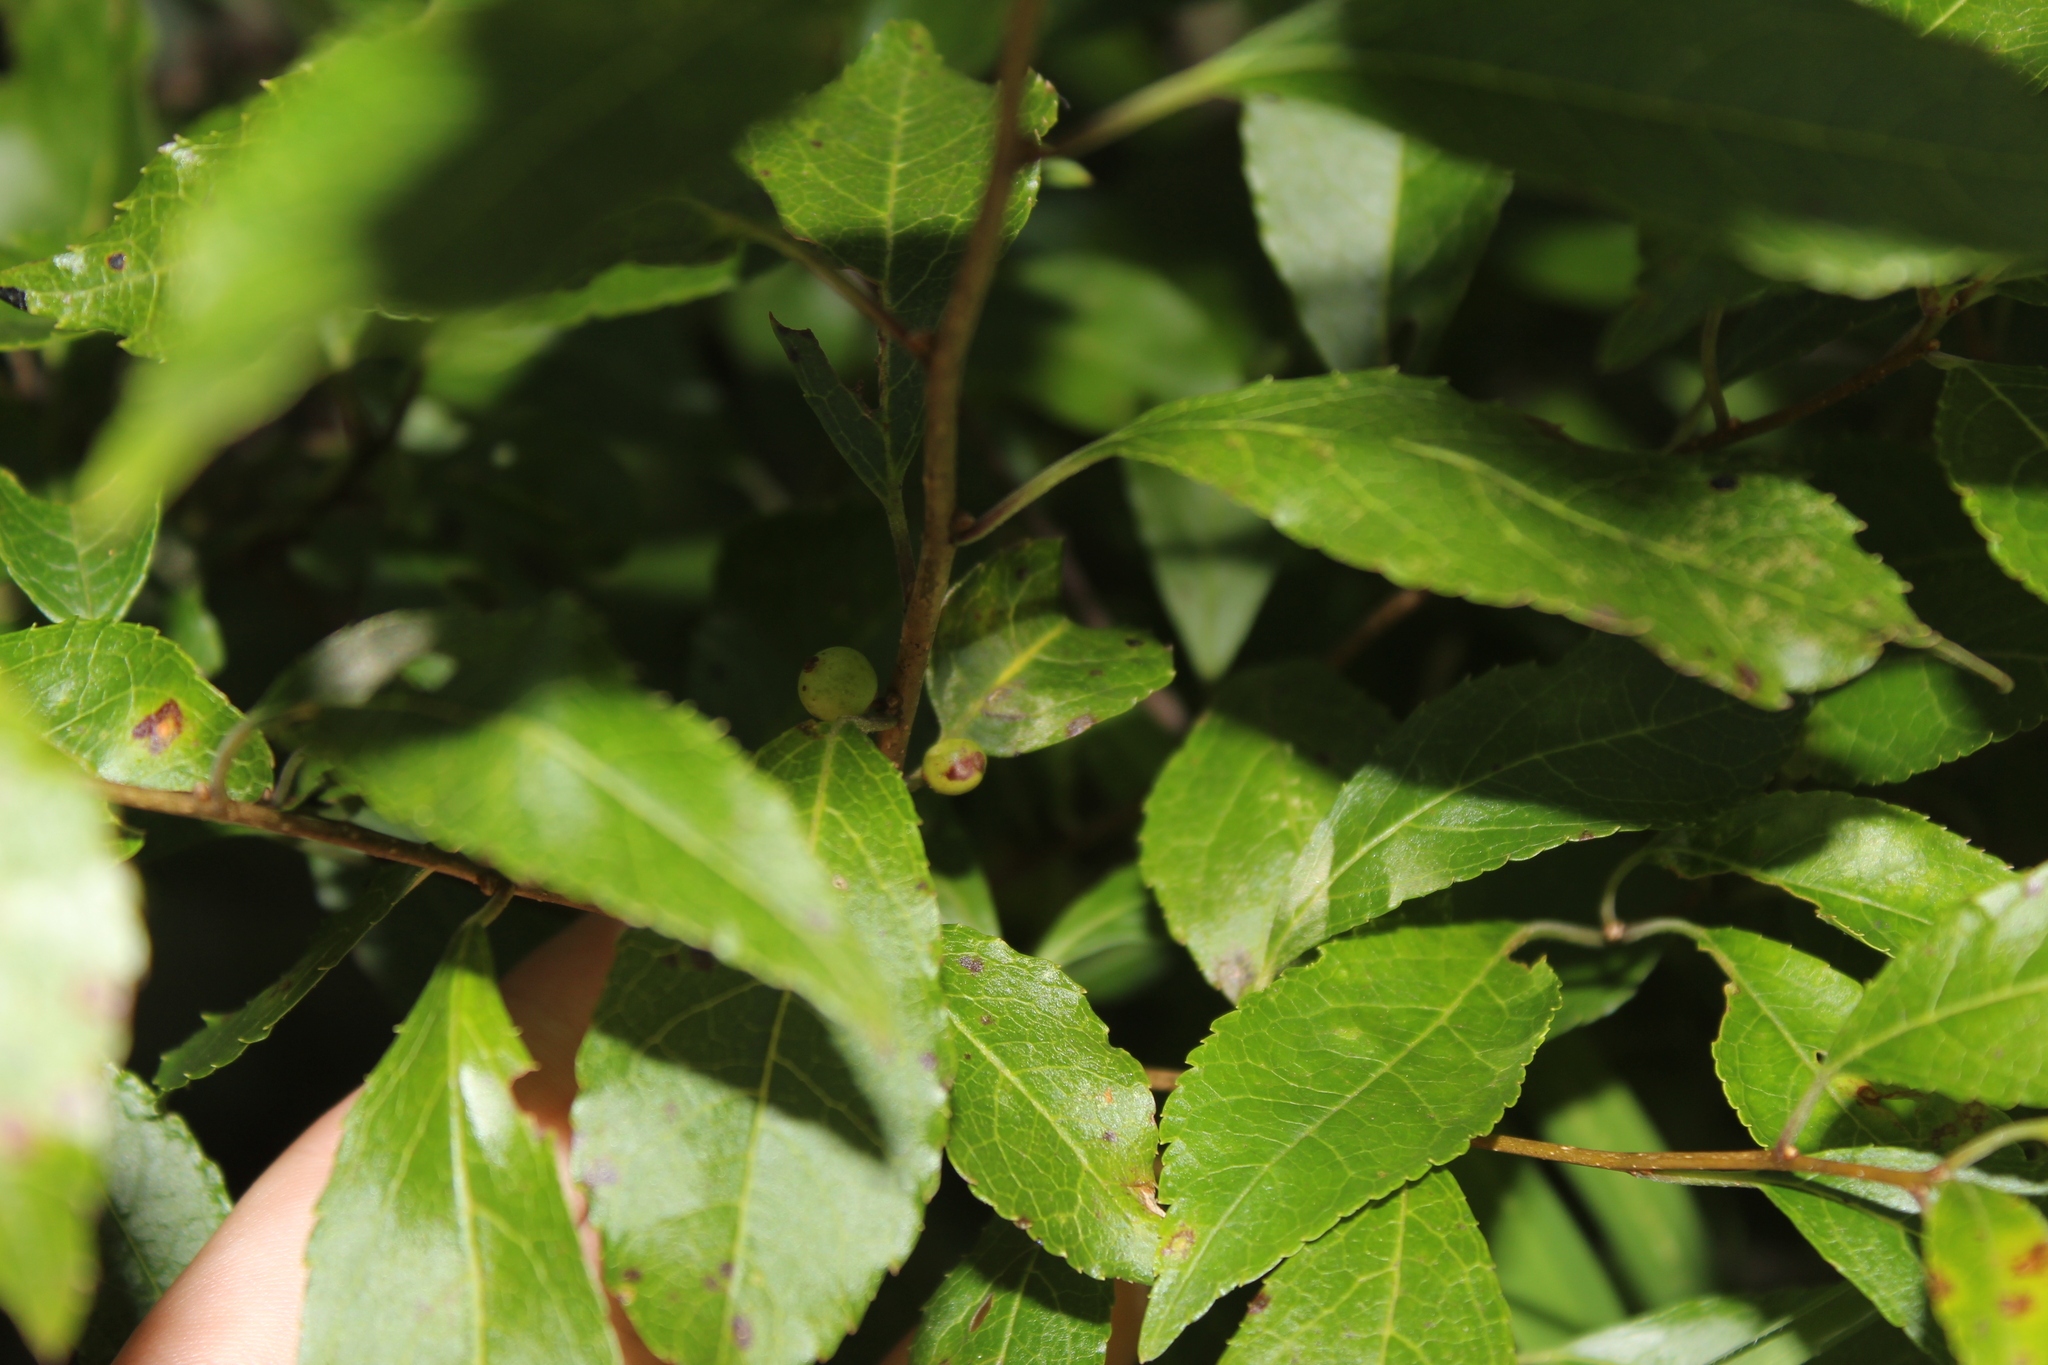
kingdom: Plantae
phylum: Tracheophyta
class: Magnoliopsida
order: Aquifoliales
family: Aquifoliaceae
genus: Ilex
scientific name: Ilex verticillata
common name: Virginia winterberry
